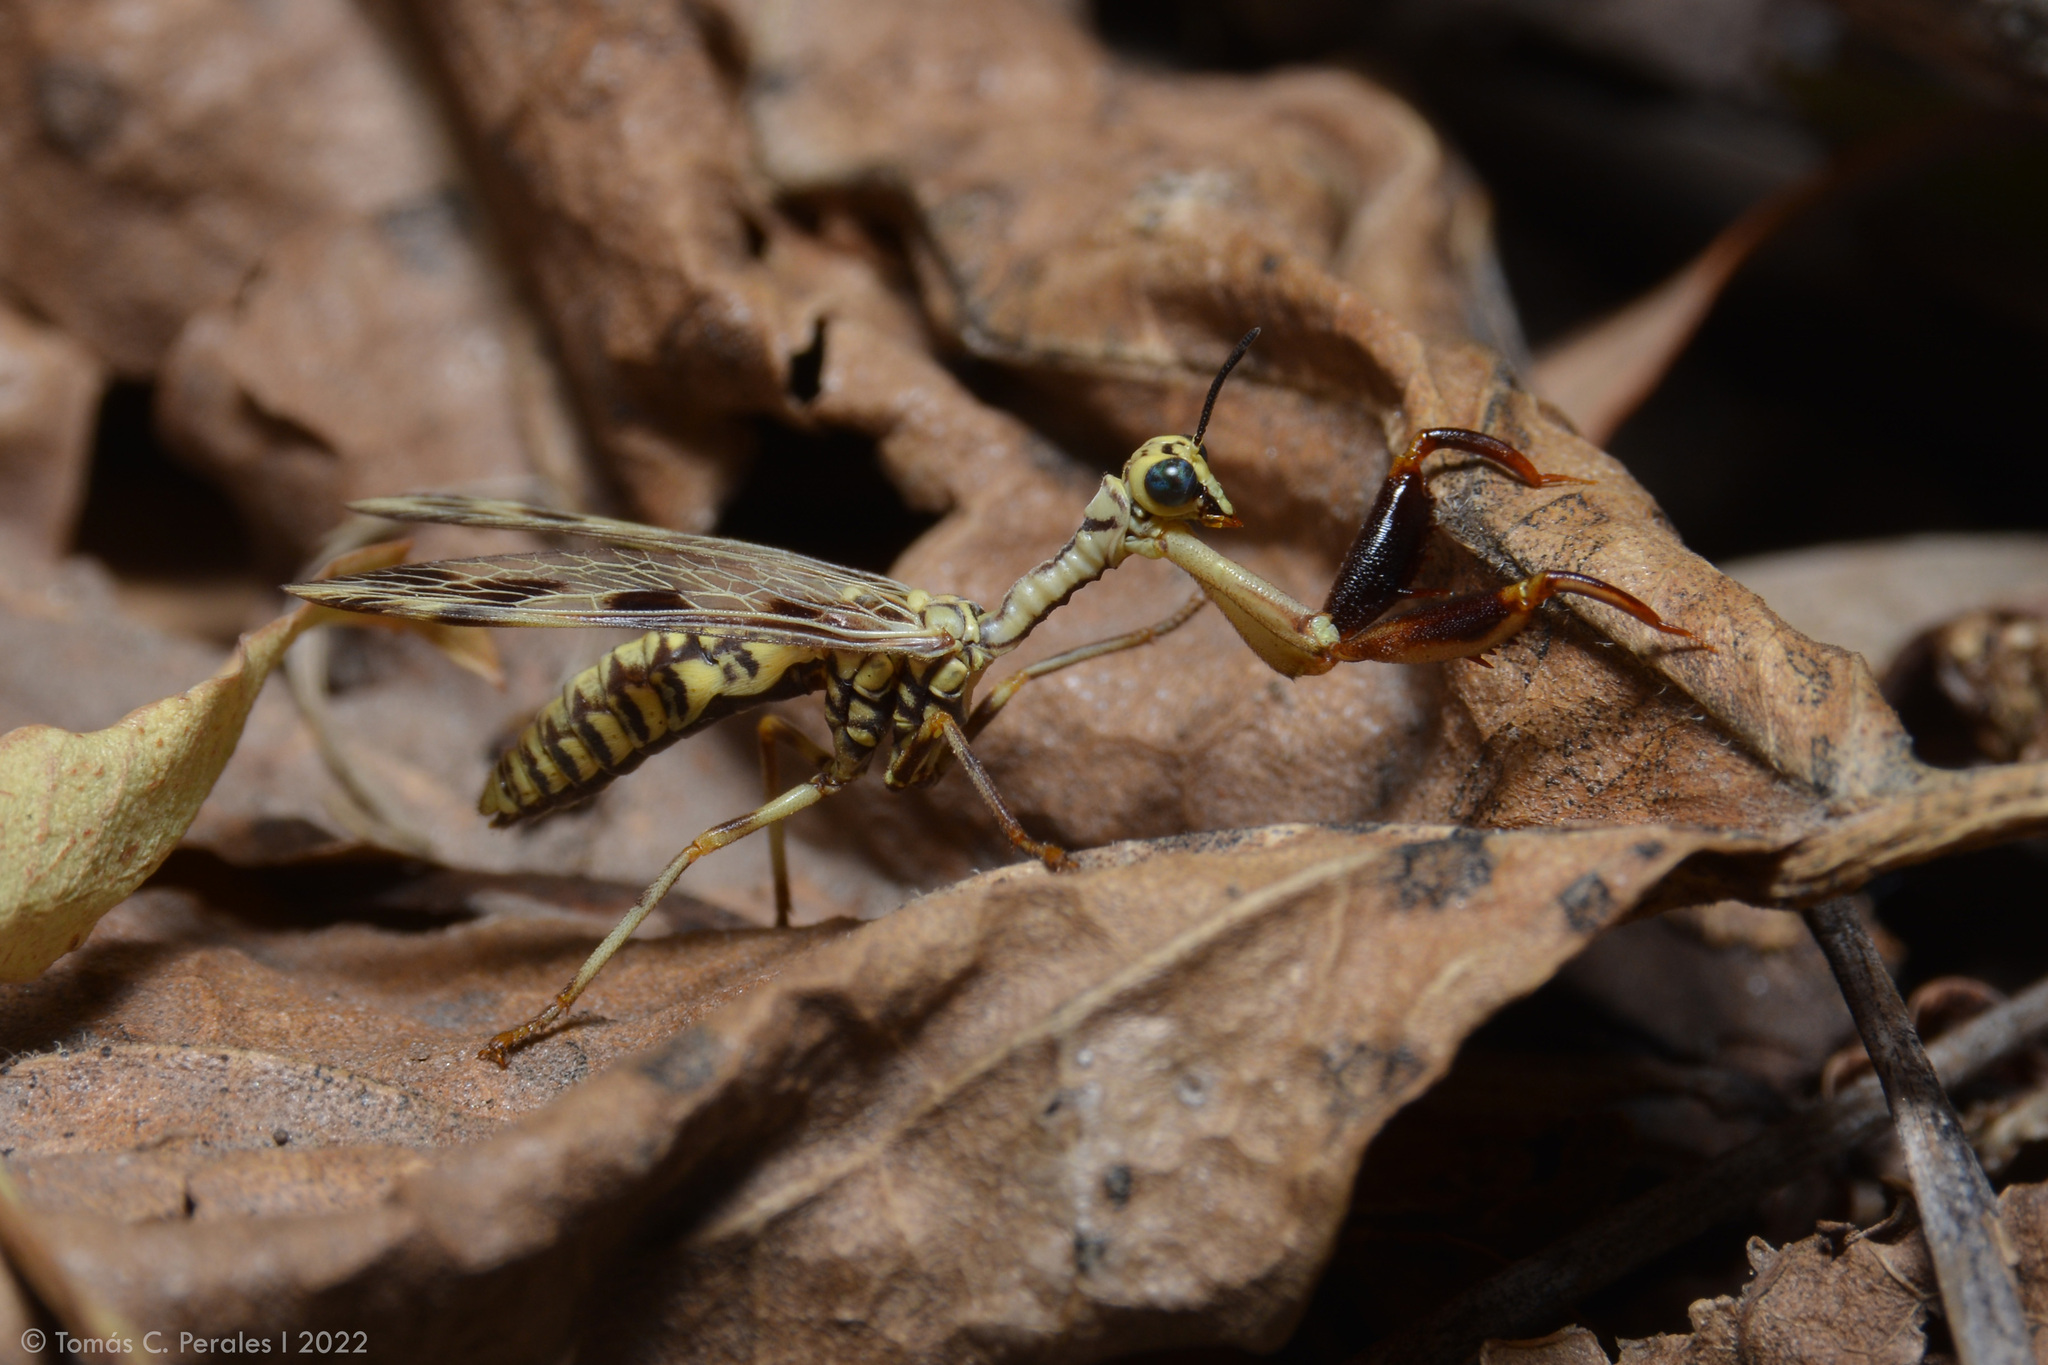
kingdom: Animalia
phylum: Arthropoda
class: Insecta
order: Neuroptera
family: Mantispidae
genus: Paramantispa
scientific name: Paramantispa ambusta
